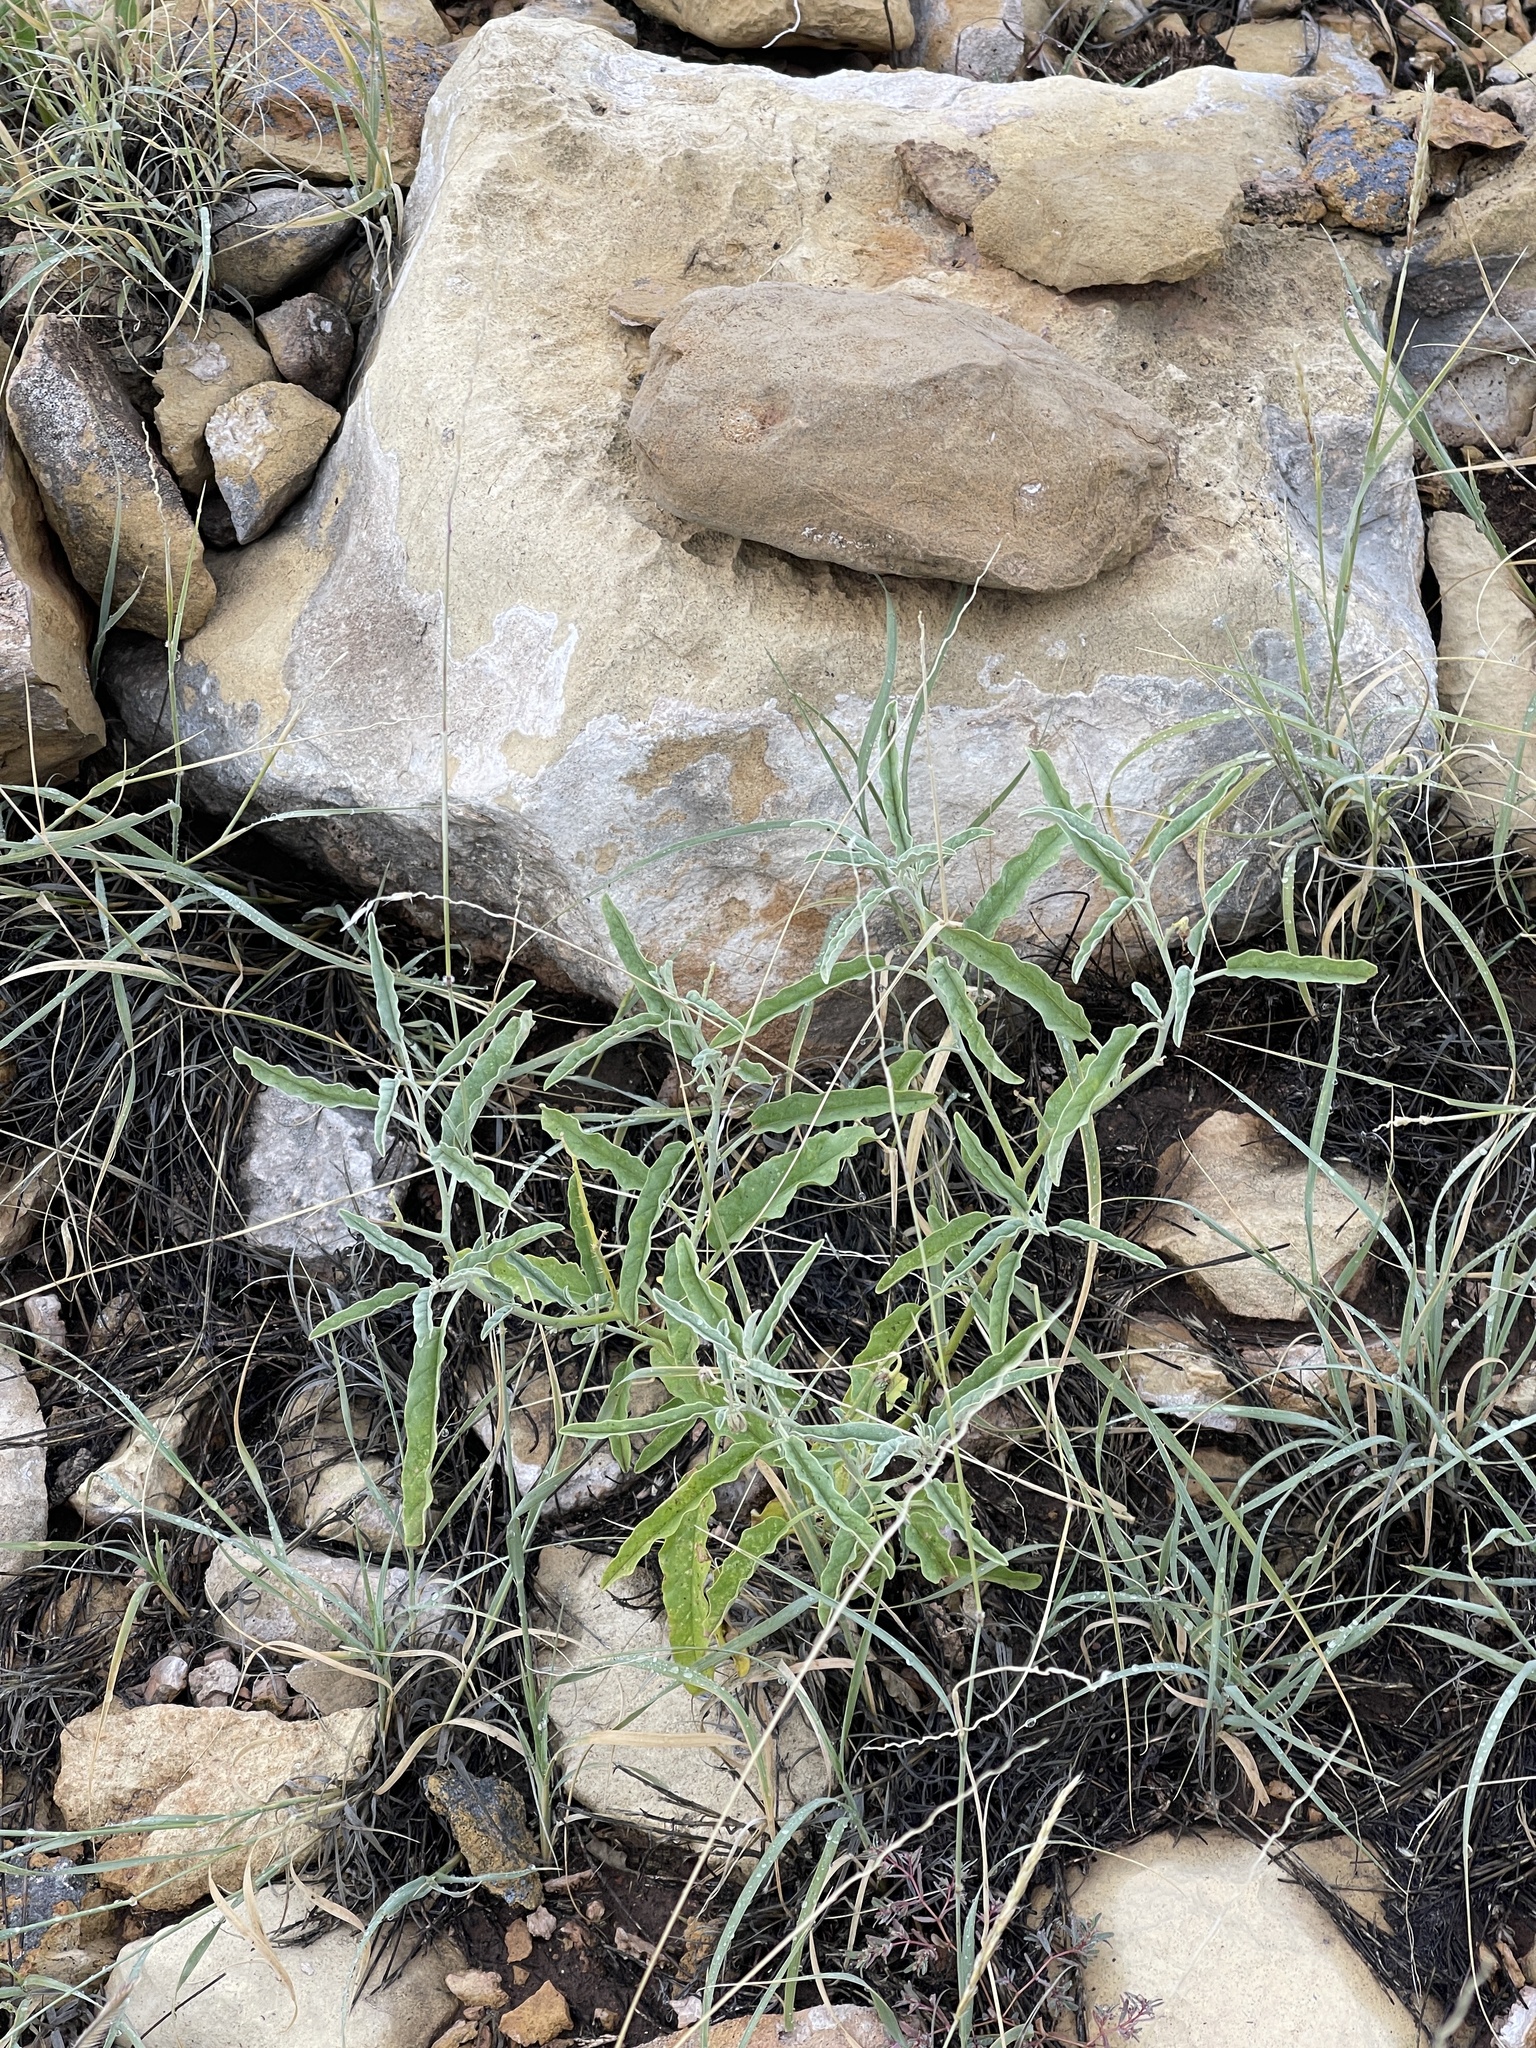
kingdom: Plantae
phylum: Tracheophyta
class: Magnoliopsida
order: Solanales
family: Solanaceae
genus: Solanum
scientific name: Solanum elaeagnifolium
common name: Silverleaf nightshade
